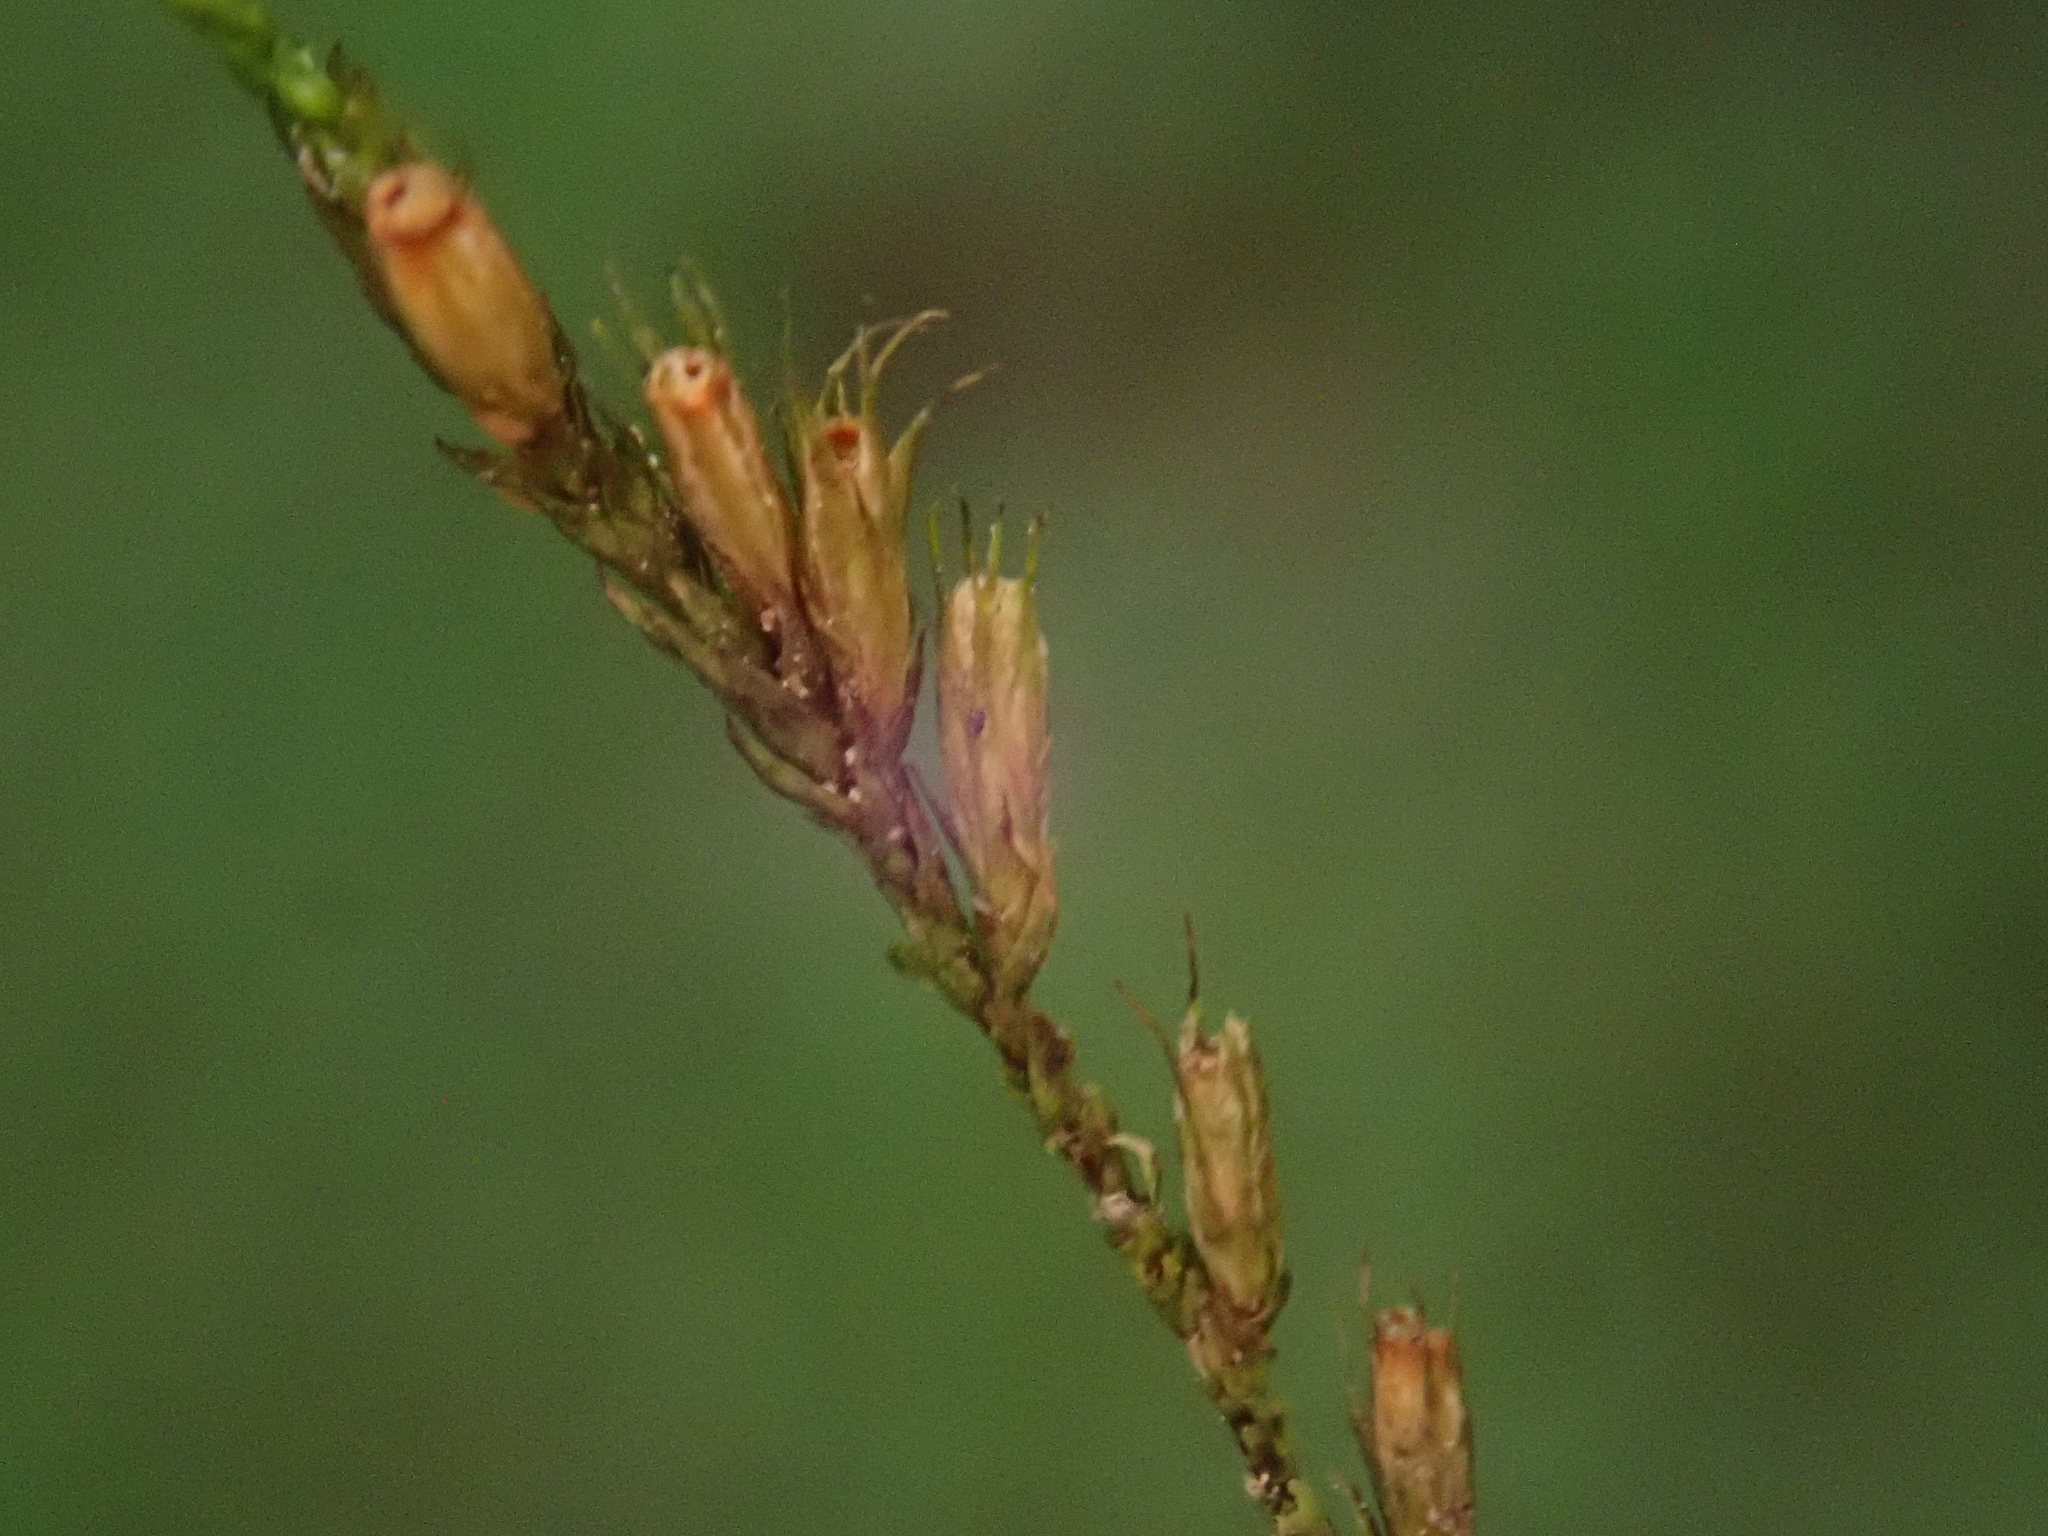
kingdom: Plantae
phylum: Bryophyta
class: Bryopsida
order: Hypnales
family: Cryphaeaceae
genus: Cryphaea
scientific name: Cryphaea heteromalla
